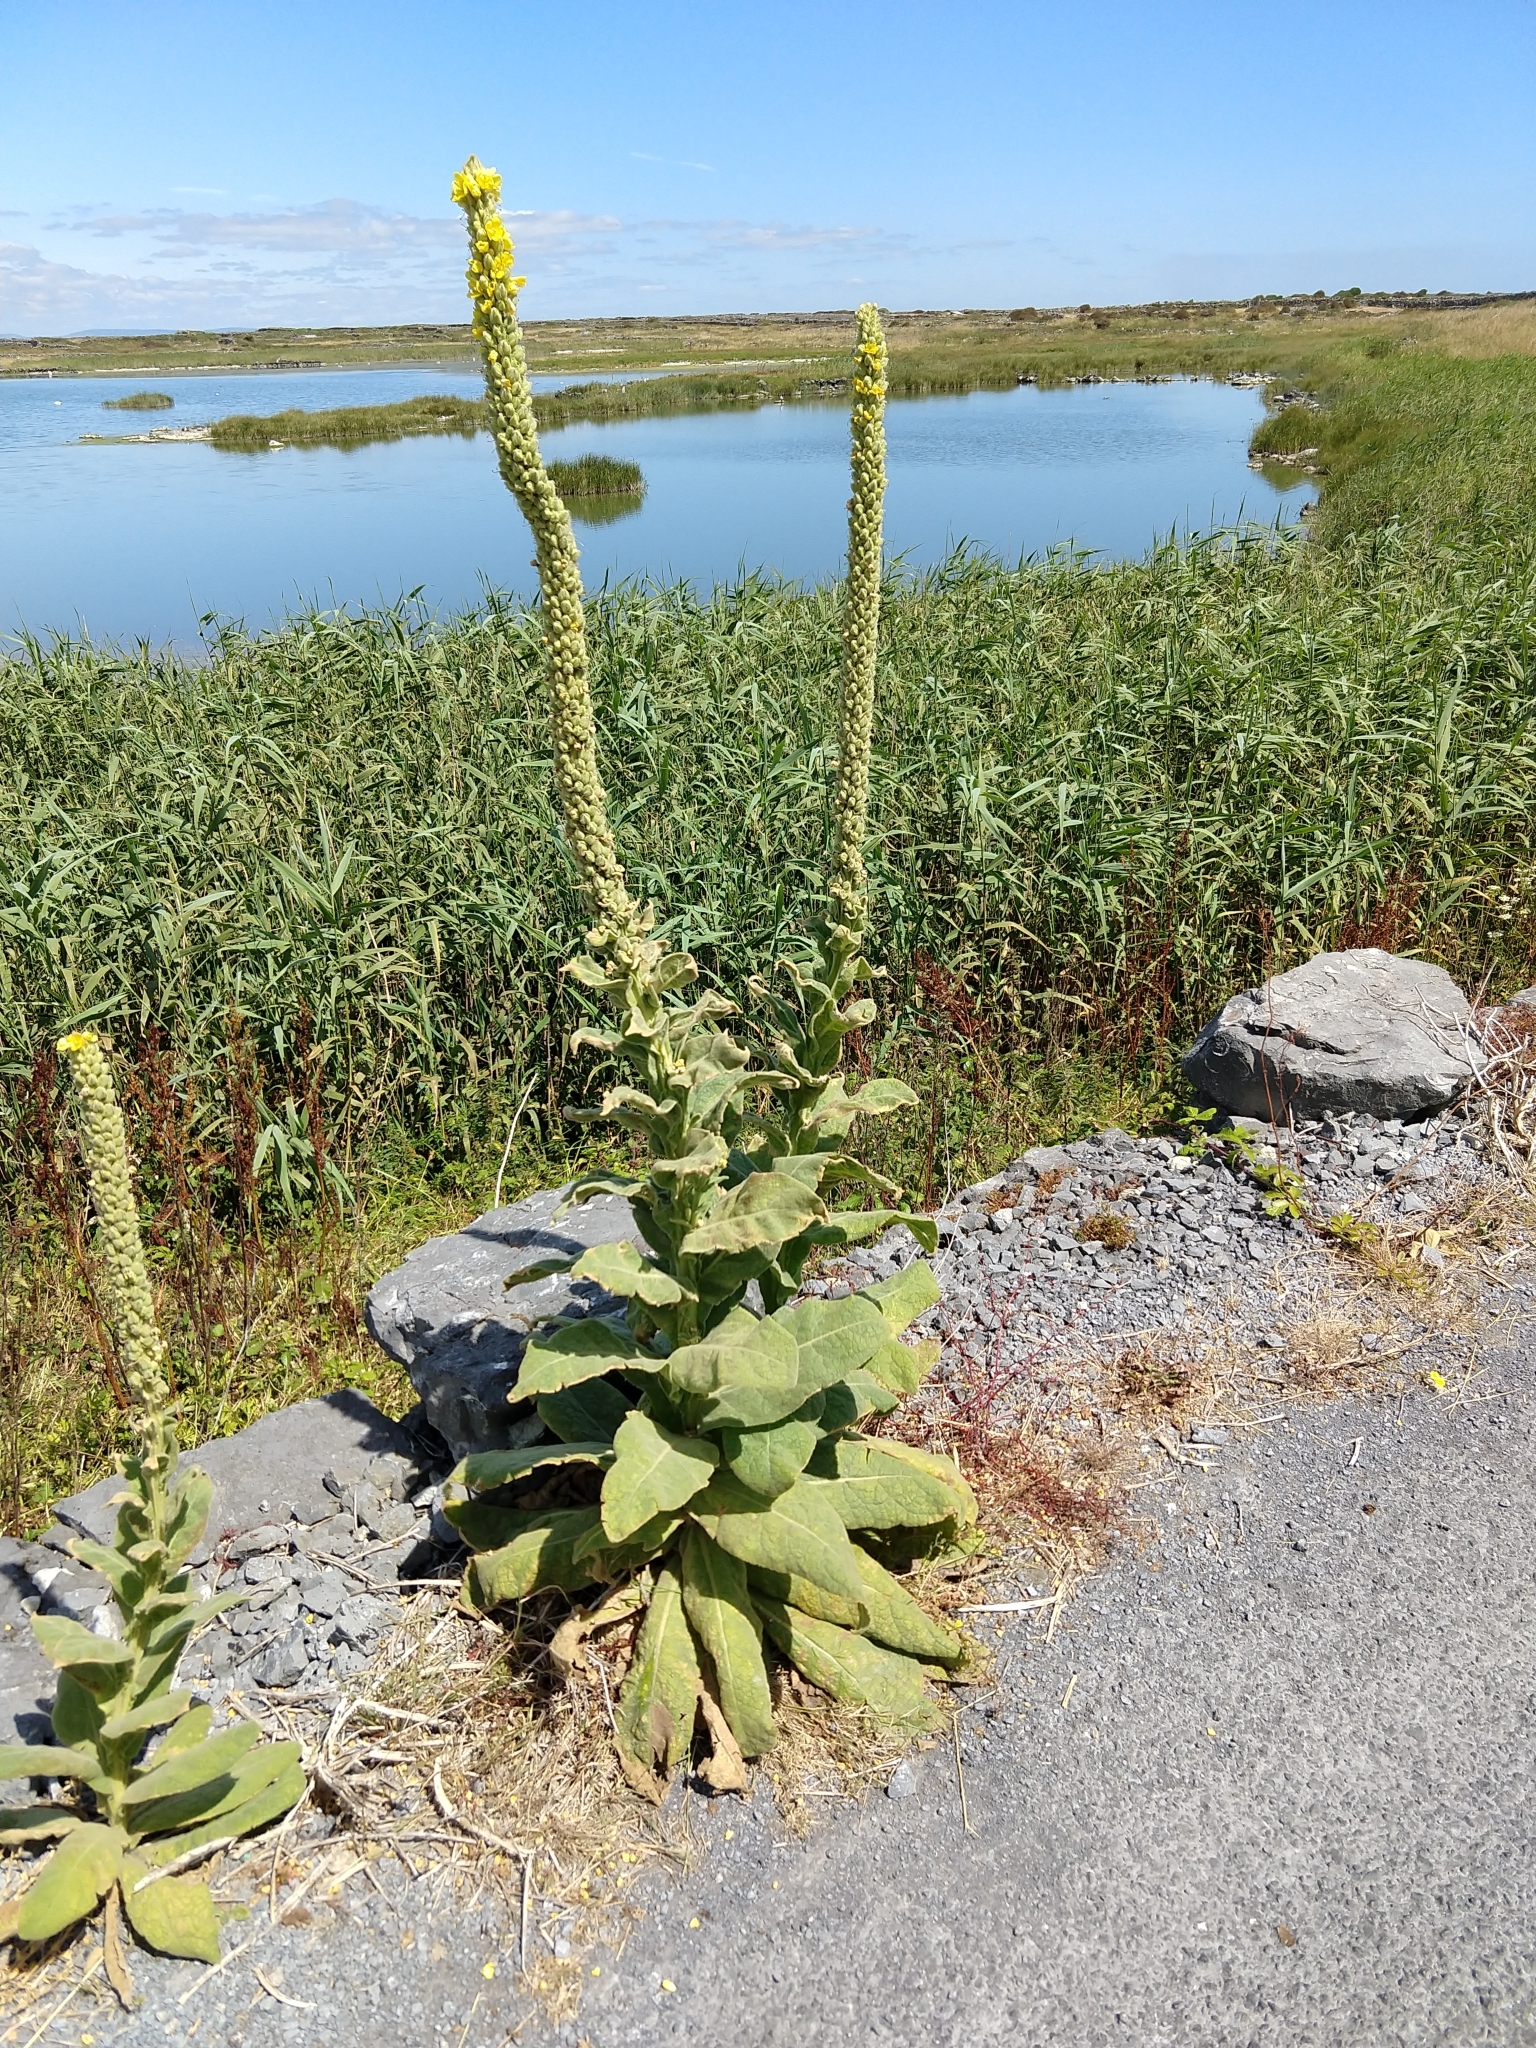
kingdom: Plantae
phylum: Tracheophyta
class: Magnoliopsida
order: Lamiales
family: Scrophulariaceae
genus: Verbascum
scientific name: Verbascum thapsus
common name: Common mullein
